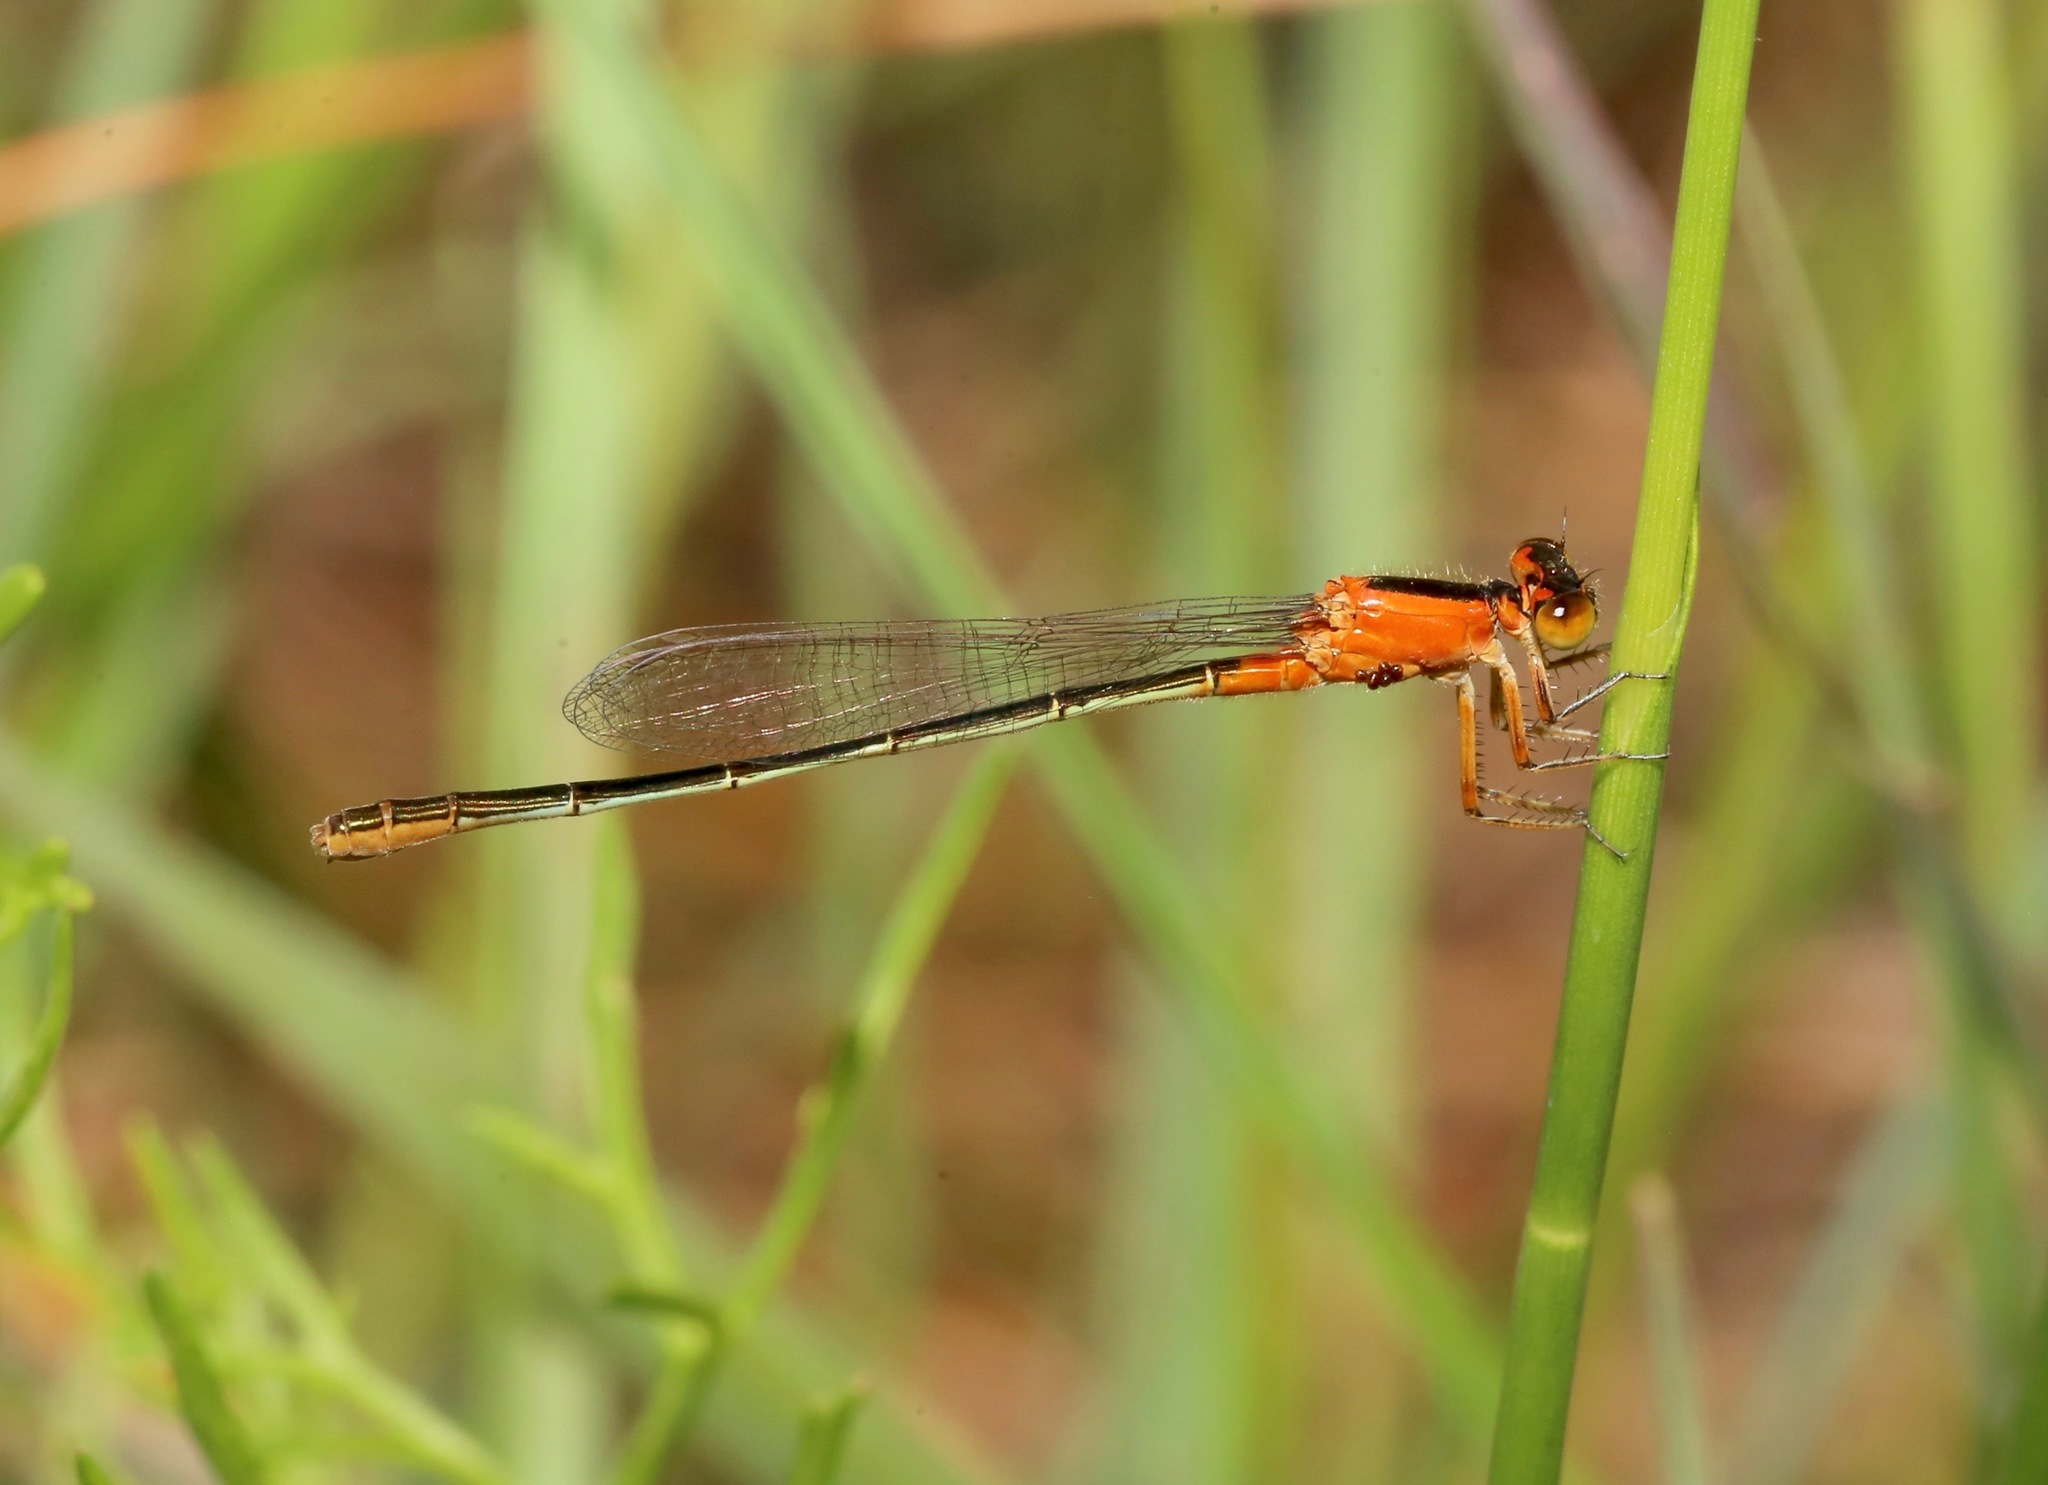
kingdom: Animalia
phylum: Arthropoda
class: Insecta
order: Odonata
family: Coenagrionidae
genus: Ischnura
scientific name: Ischnura ramburii
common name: Rambur's forktail
